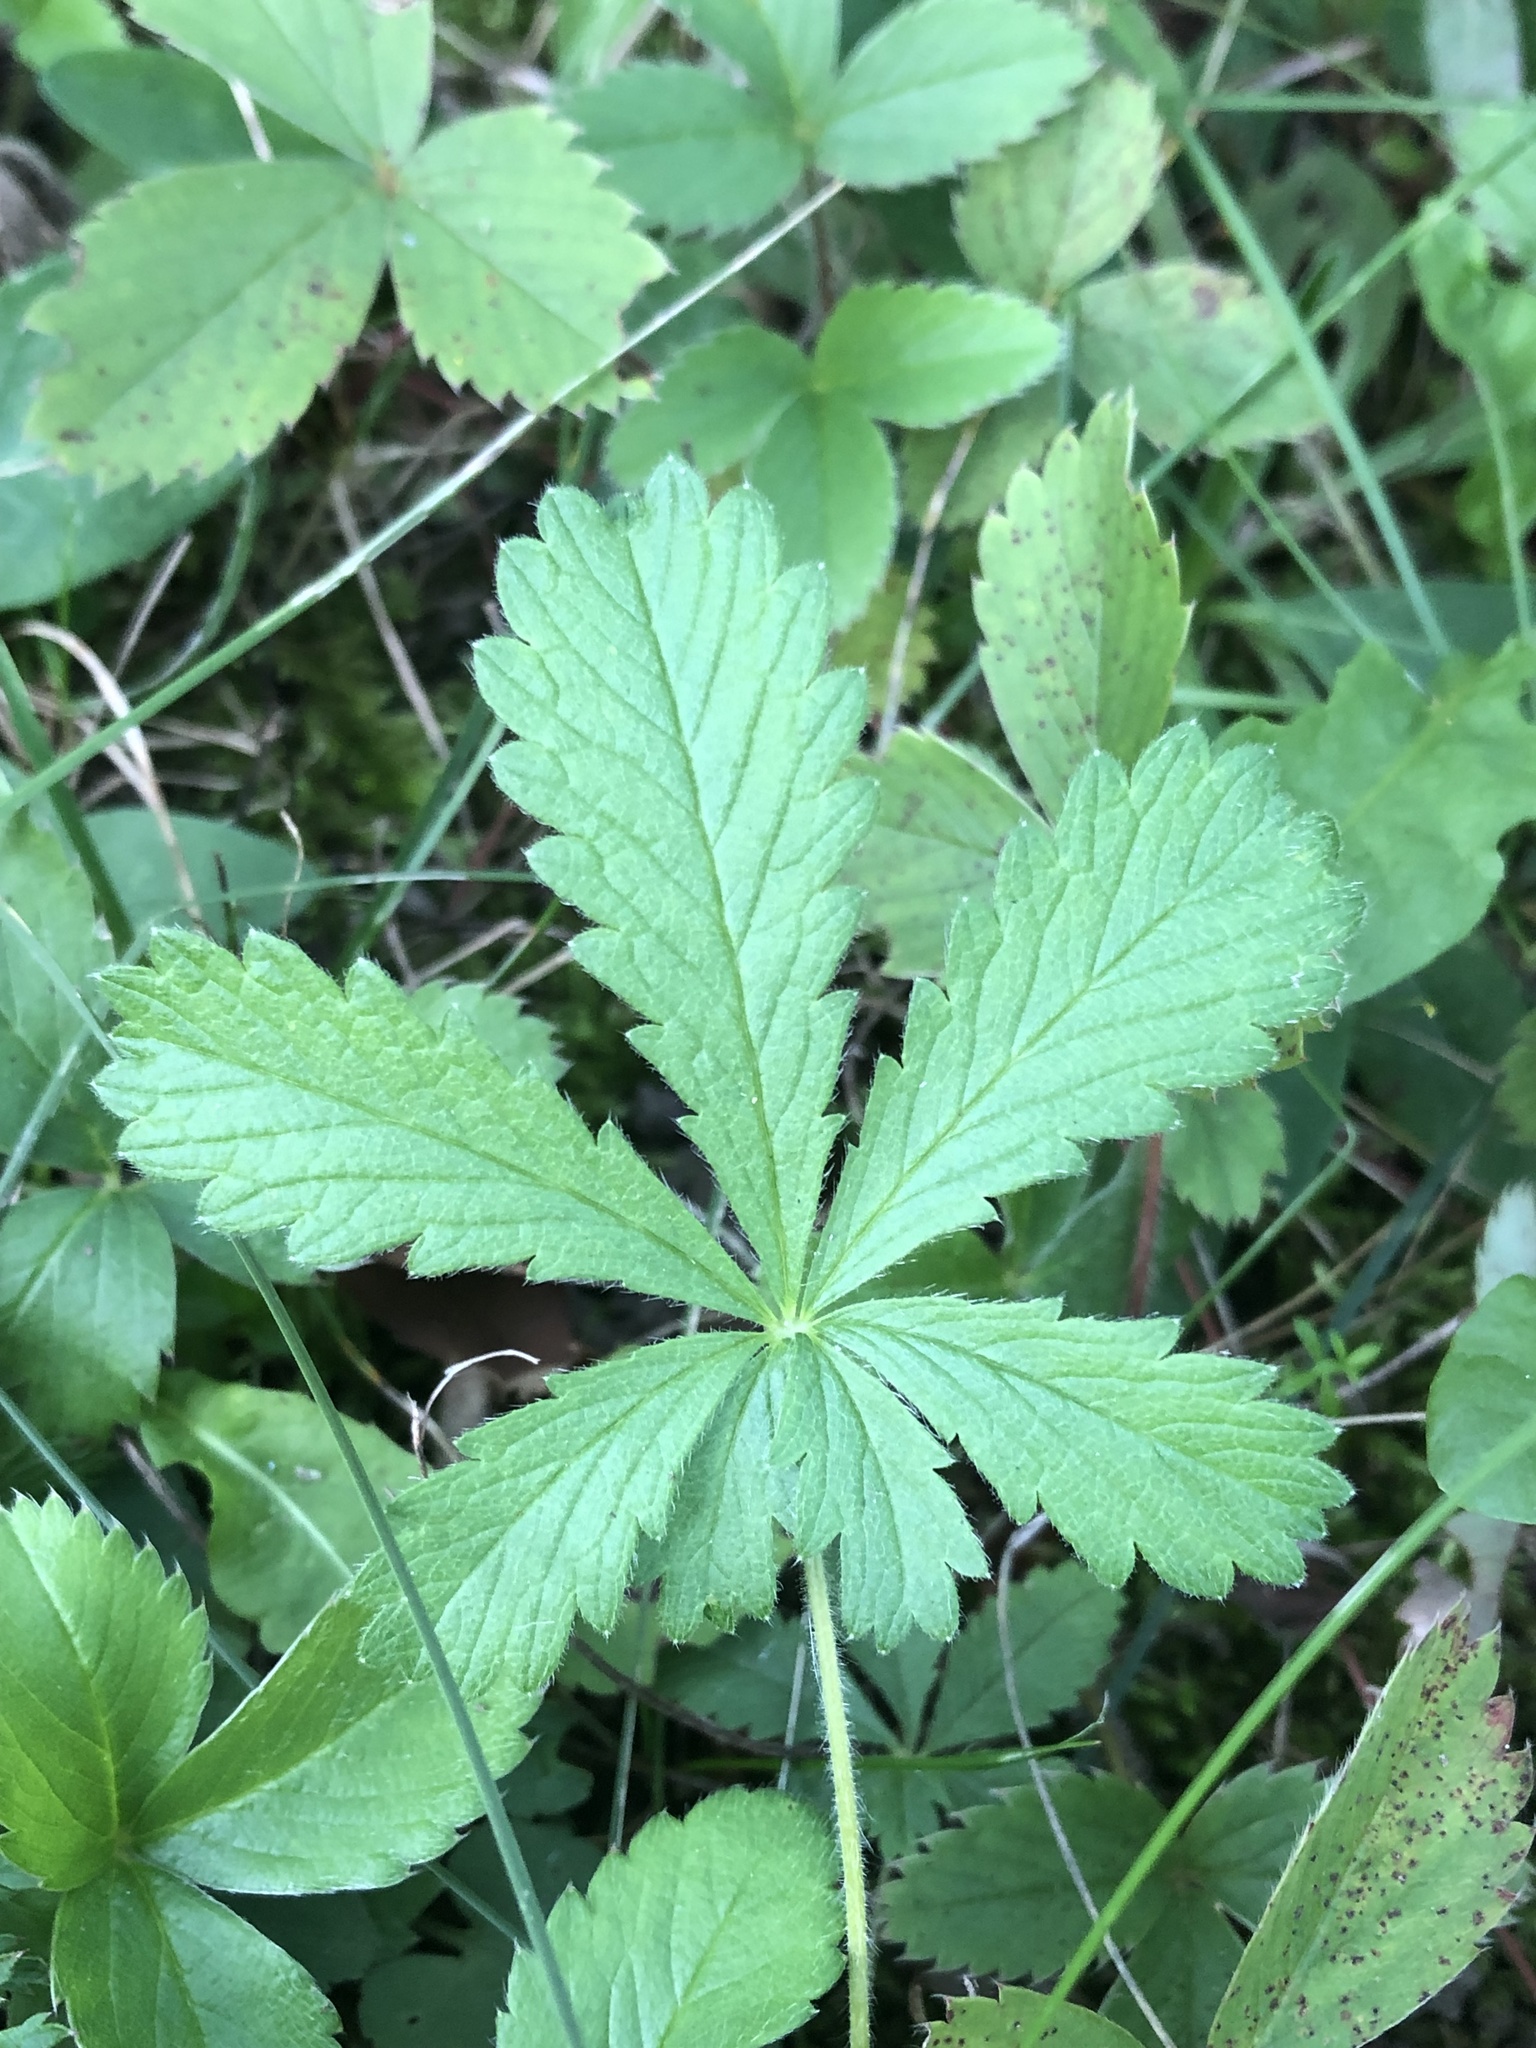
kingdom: Plantae
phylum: Tracheophyta
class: Magnoliopsida
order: Rosales
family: Rosaceae
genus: Potentilla
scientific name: Potentilla recta
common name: Sulphur cinquefoil
